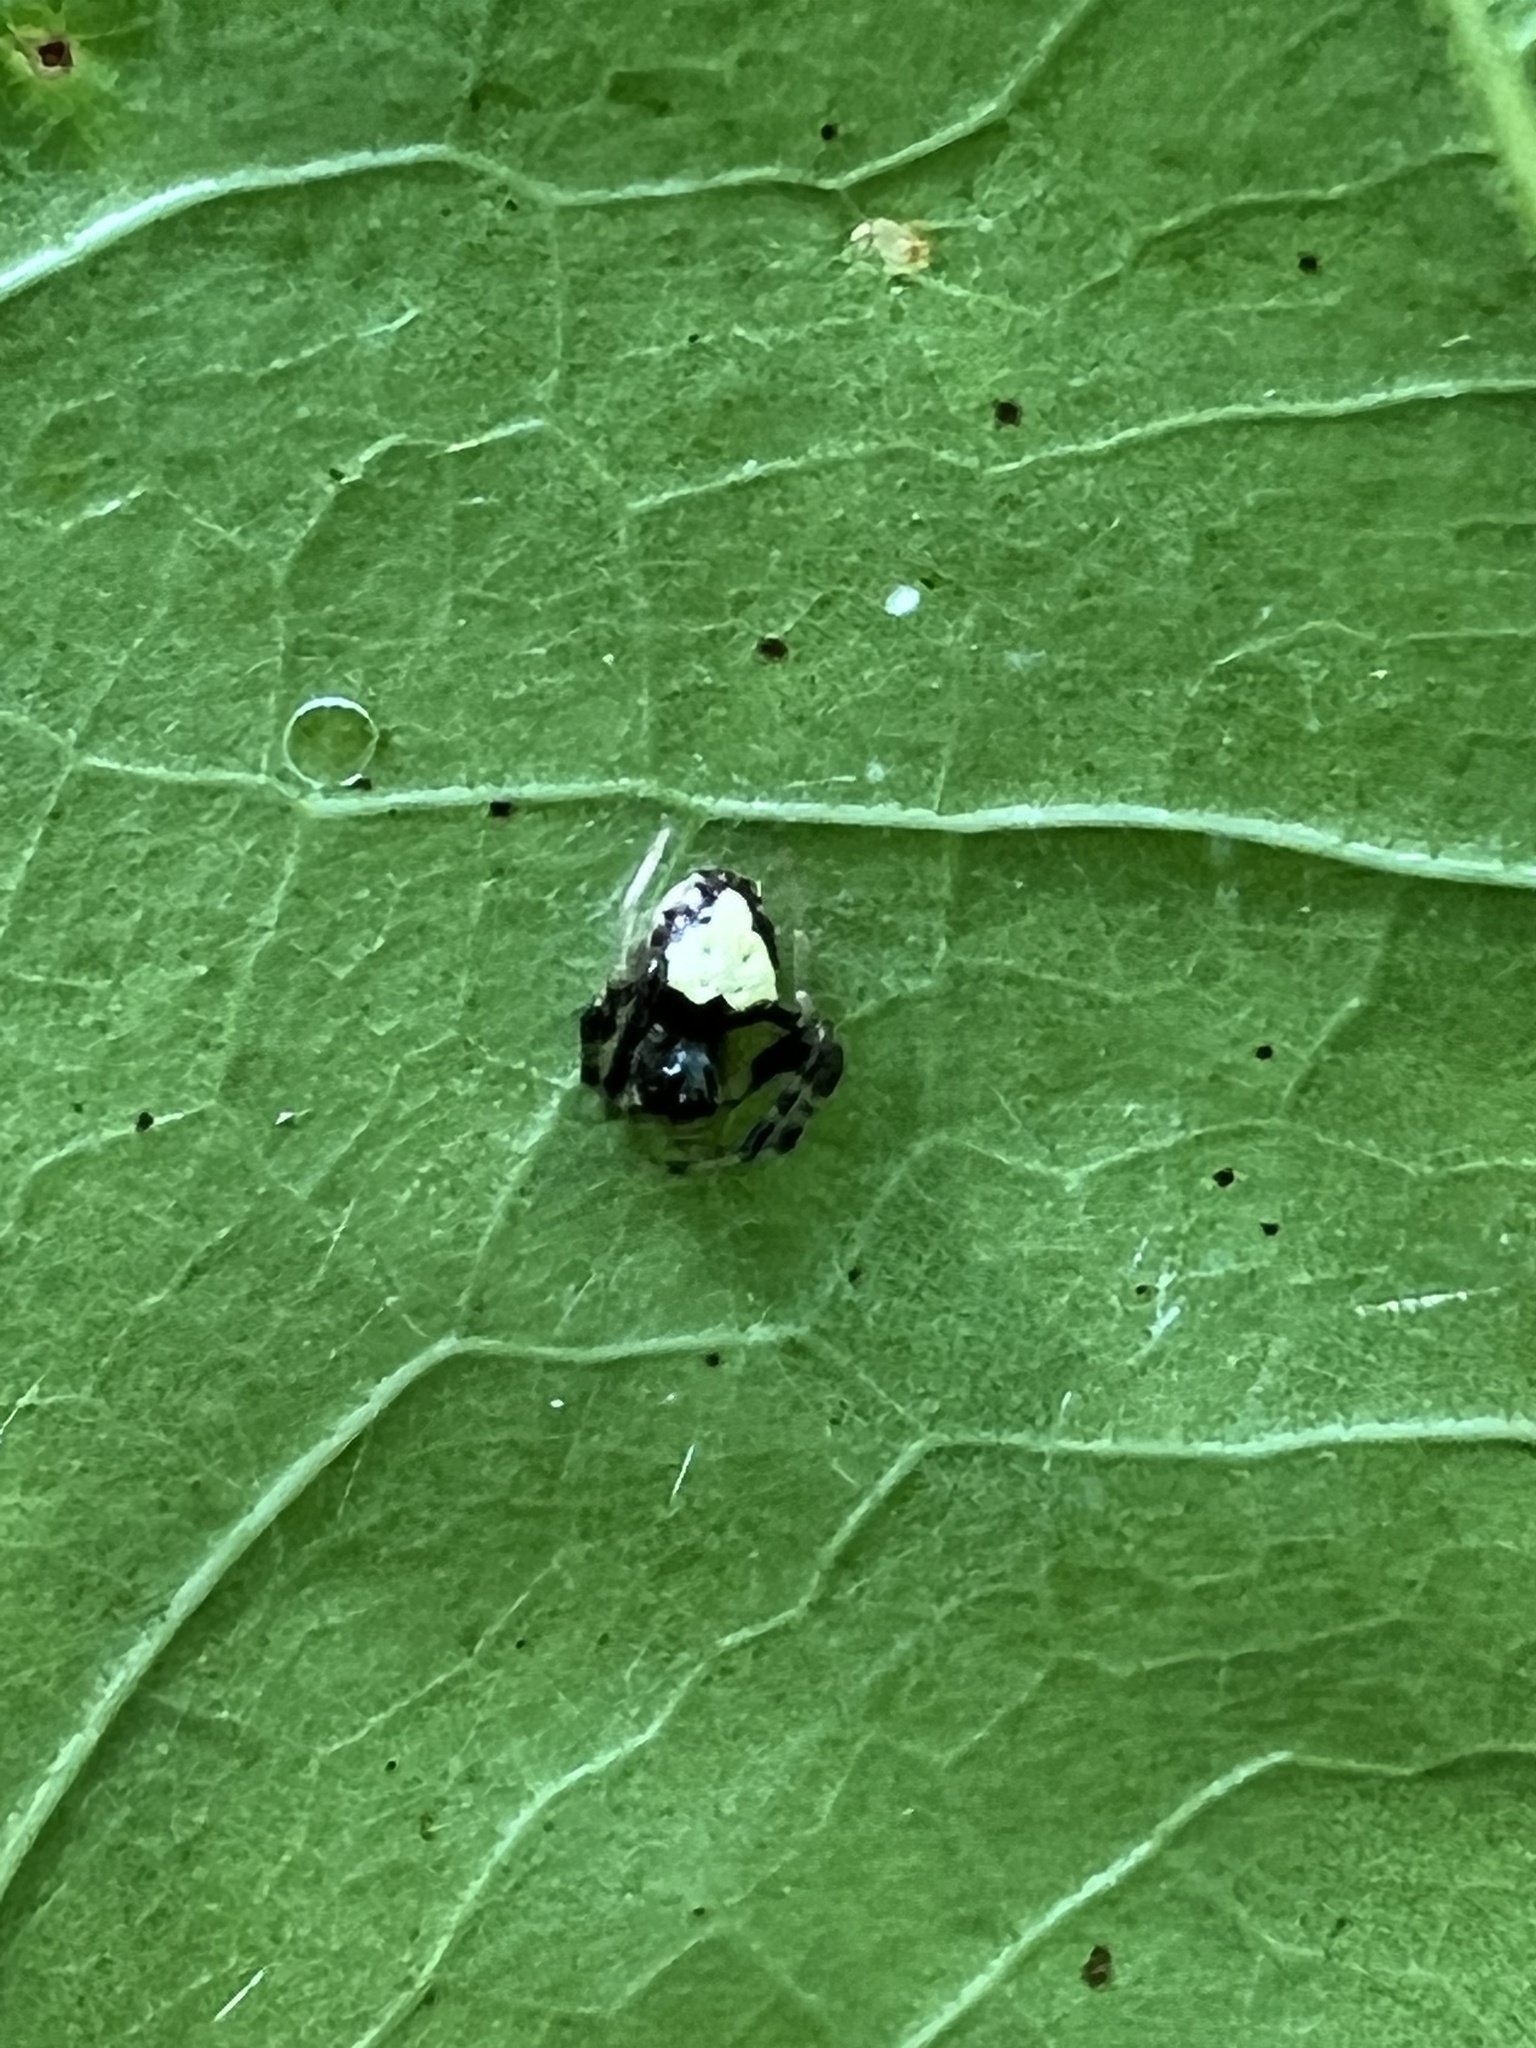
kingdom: Animalia
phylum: Arthropoda
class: Arachnida
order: Araneae
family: Araneidae
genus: Verrucosa
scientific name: Verrucosa arenata
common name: Orb weavers
